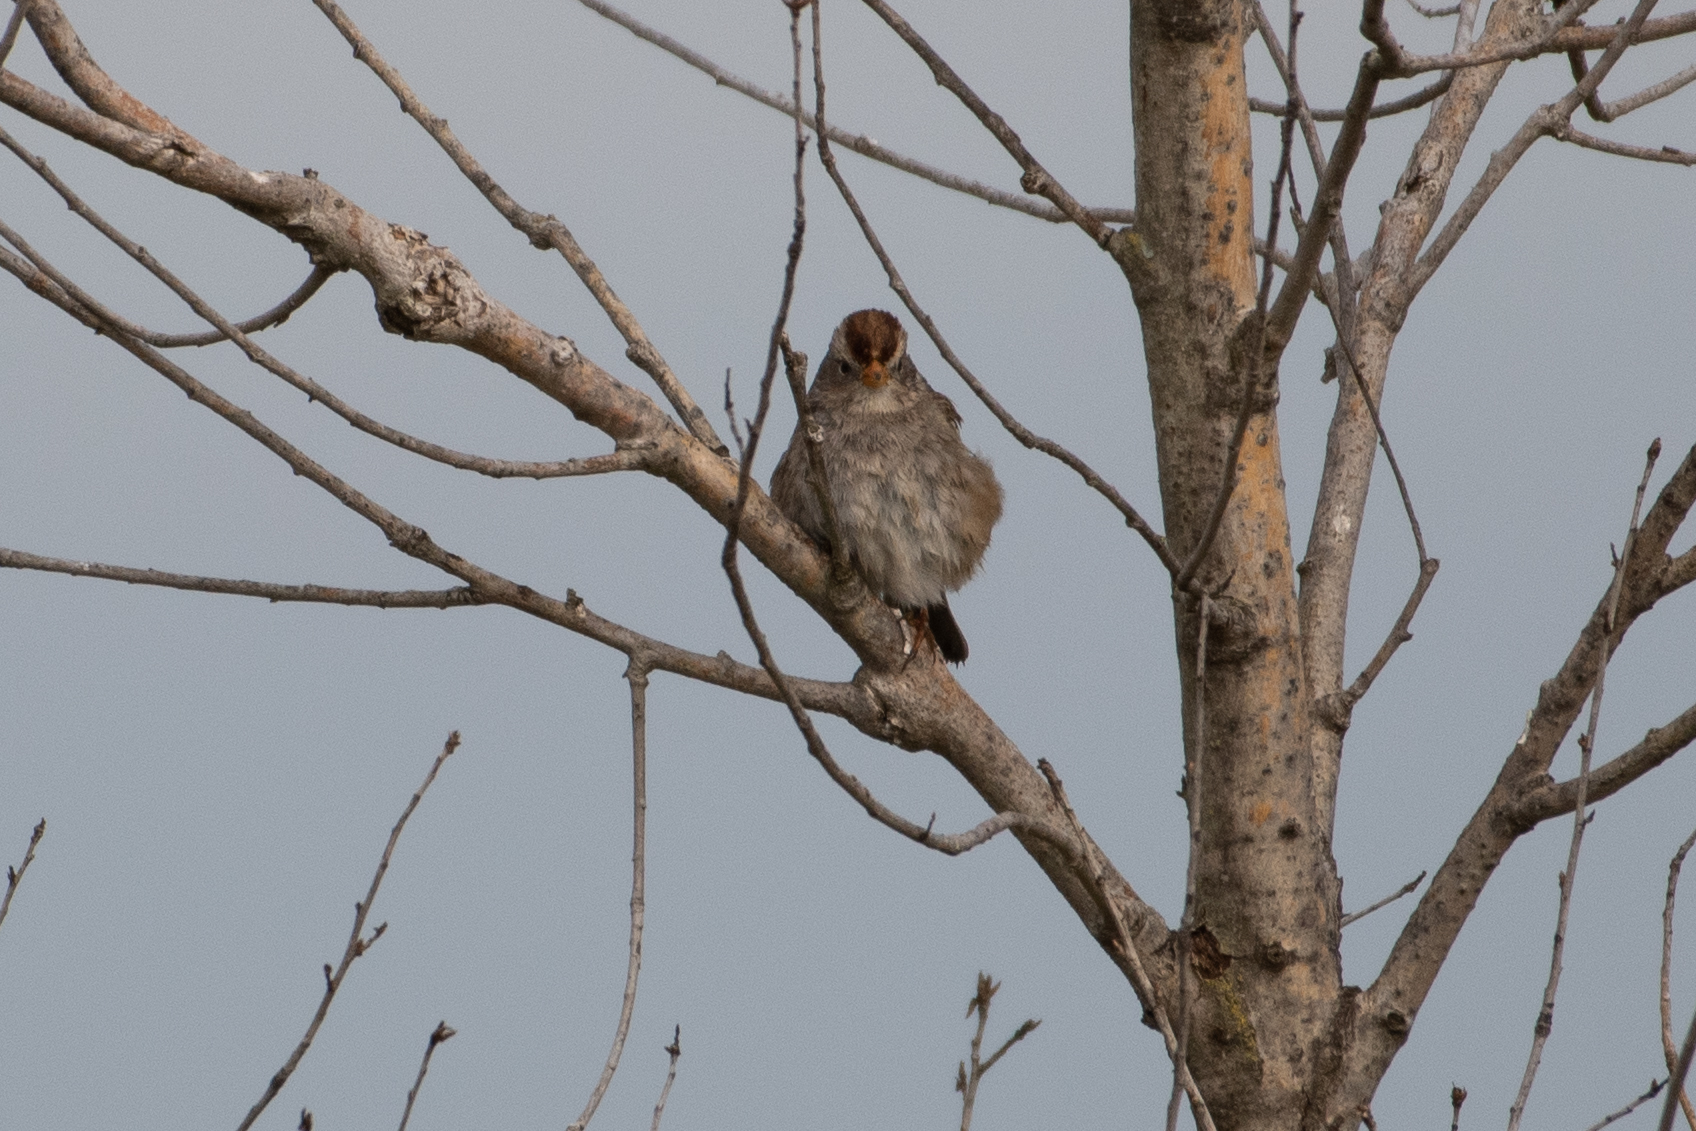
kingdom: Animalia
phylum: Chordata
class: Aves
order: Passeriformes
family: Passerellidae
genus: Zonotrichia
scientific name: Zonotrichia atricapilla
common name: Golden-crowned sparrow
